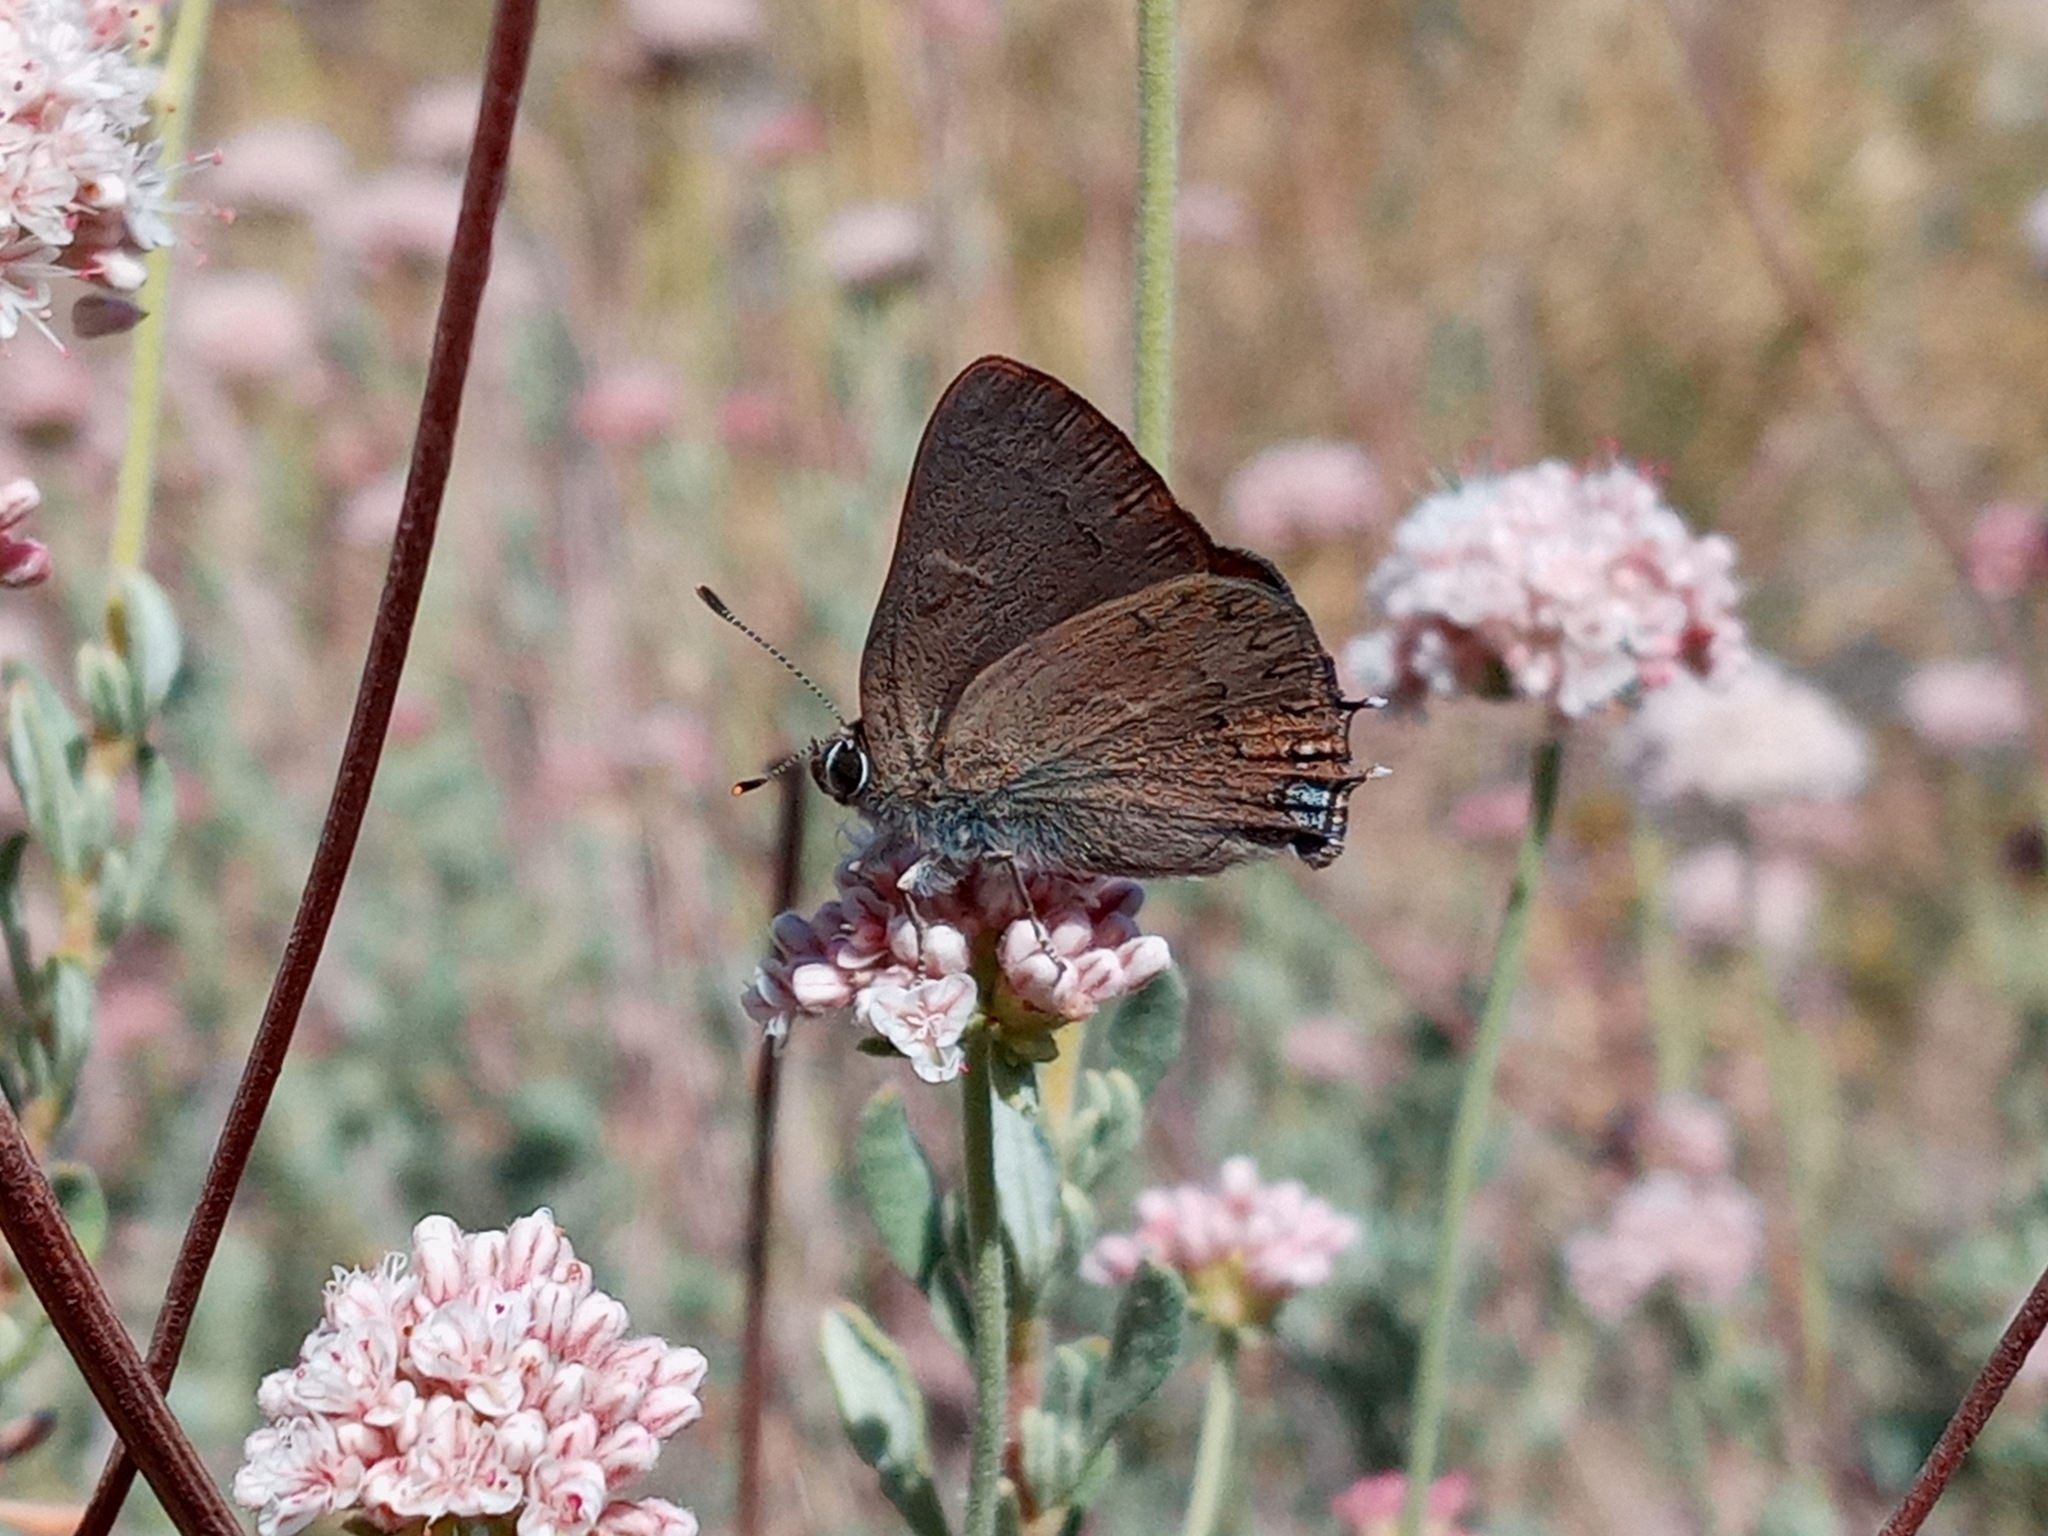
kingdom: Animalia
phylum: Arthropoda
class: Insecta
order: Lepidoptera
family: Lycaenidae
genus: Strymon
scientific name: Strymon saepium
